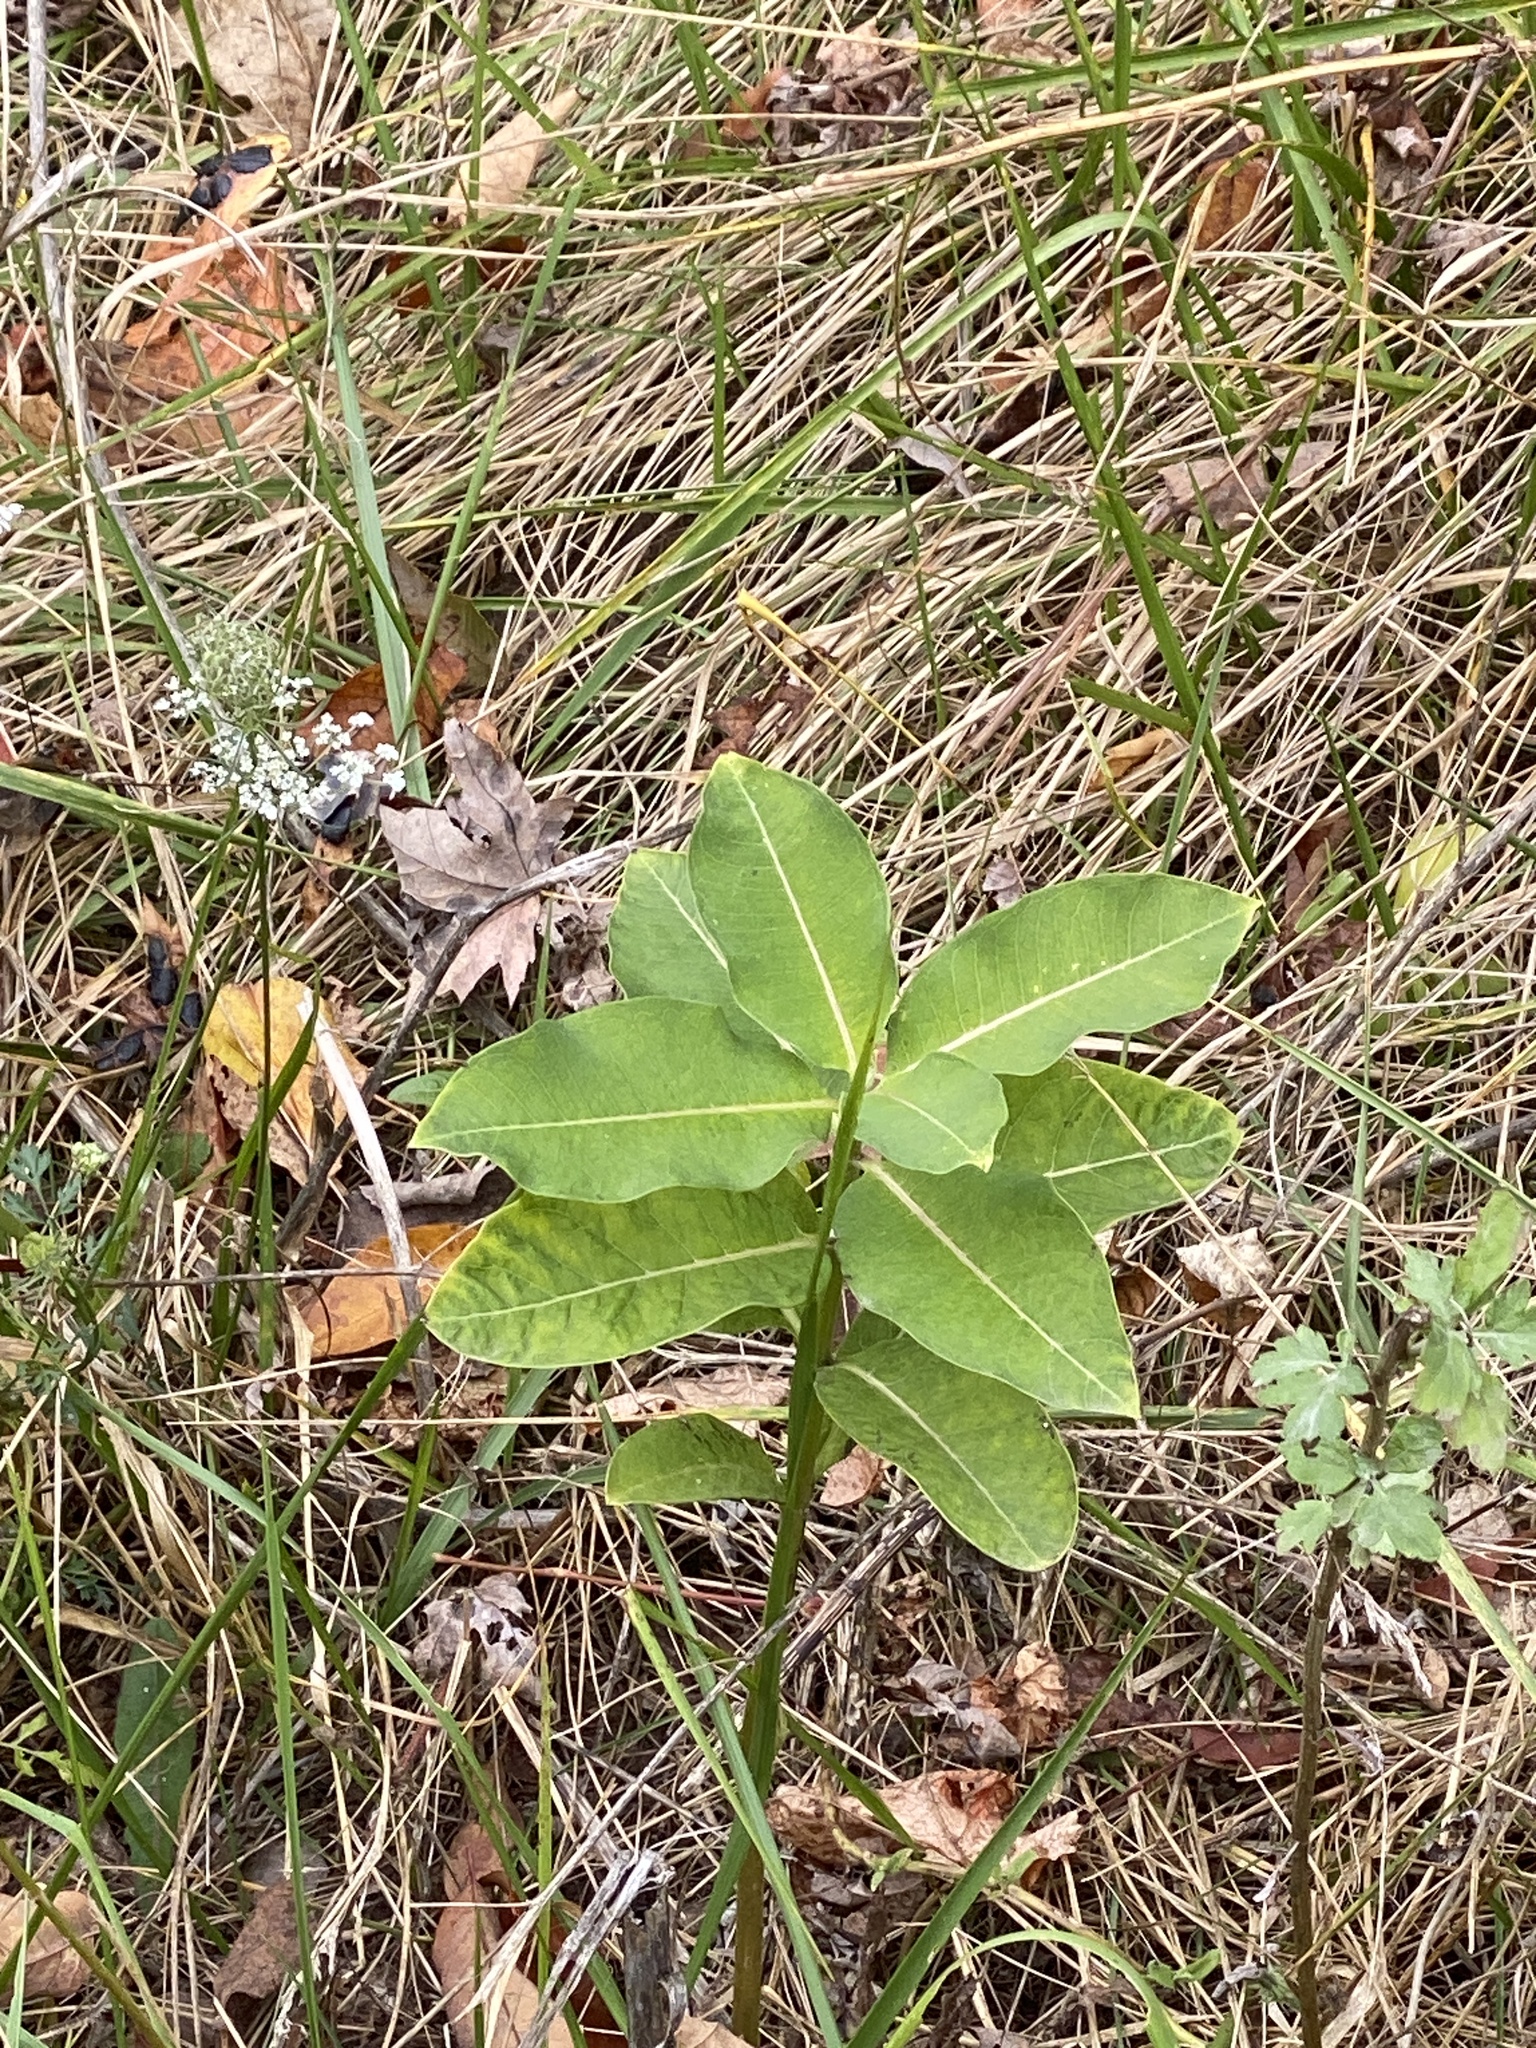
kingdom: Plantae
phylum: Tracheophyta
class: Magnoliopsida
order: Gentianales
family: Apocynaceae
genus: Asclepias
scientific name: Asclepias syriaca
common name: Common milkweed
